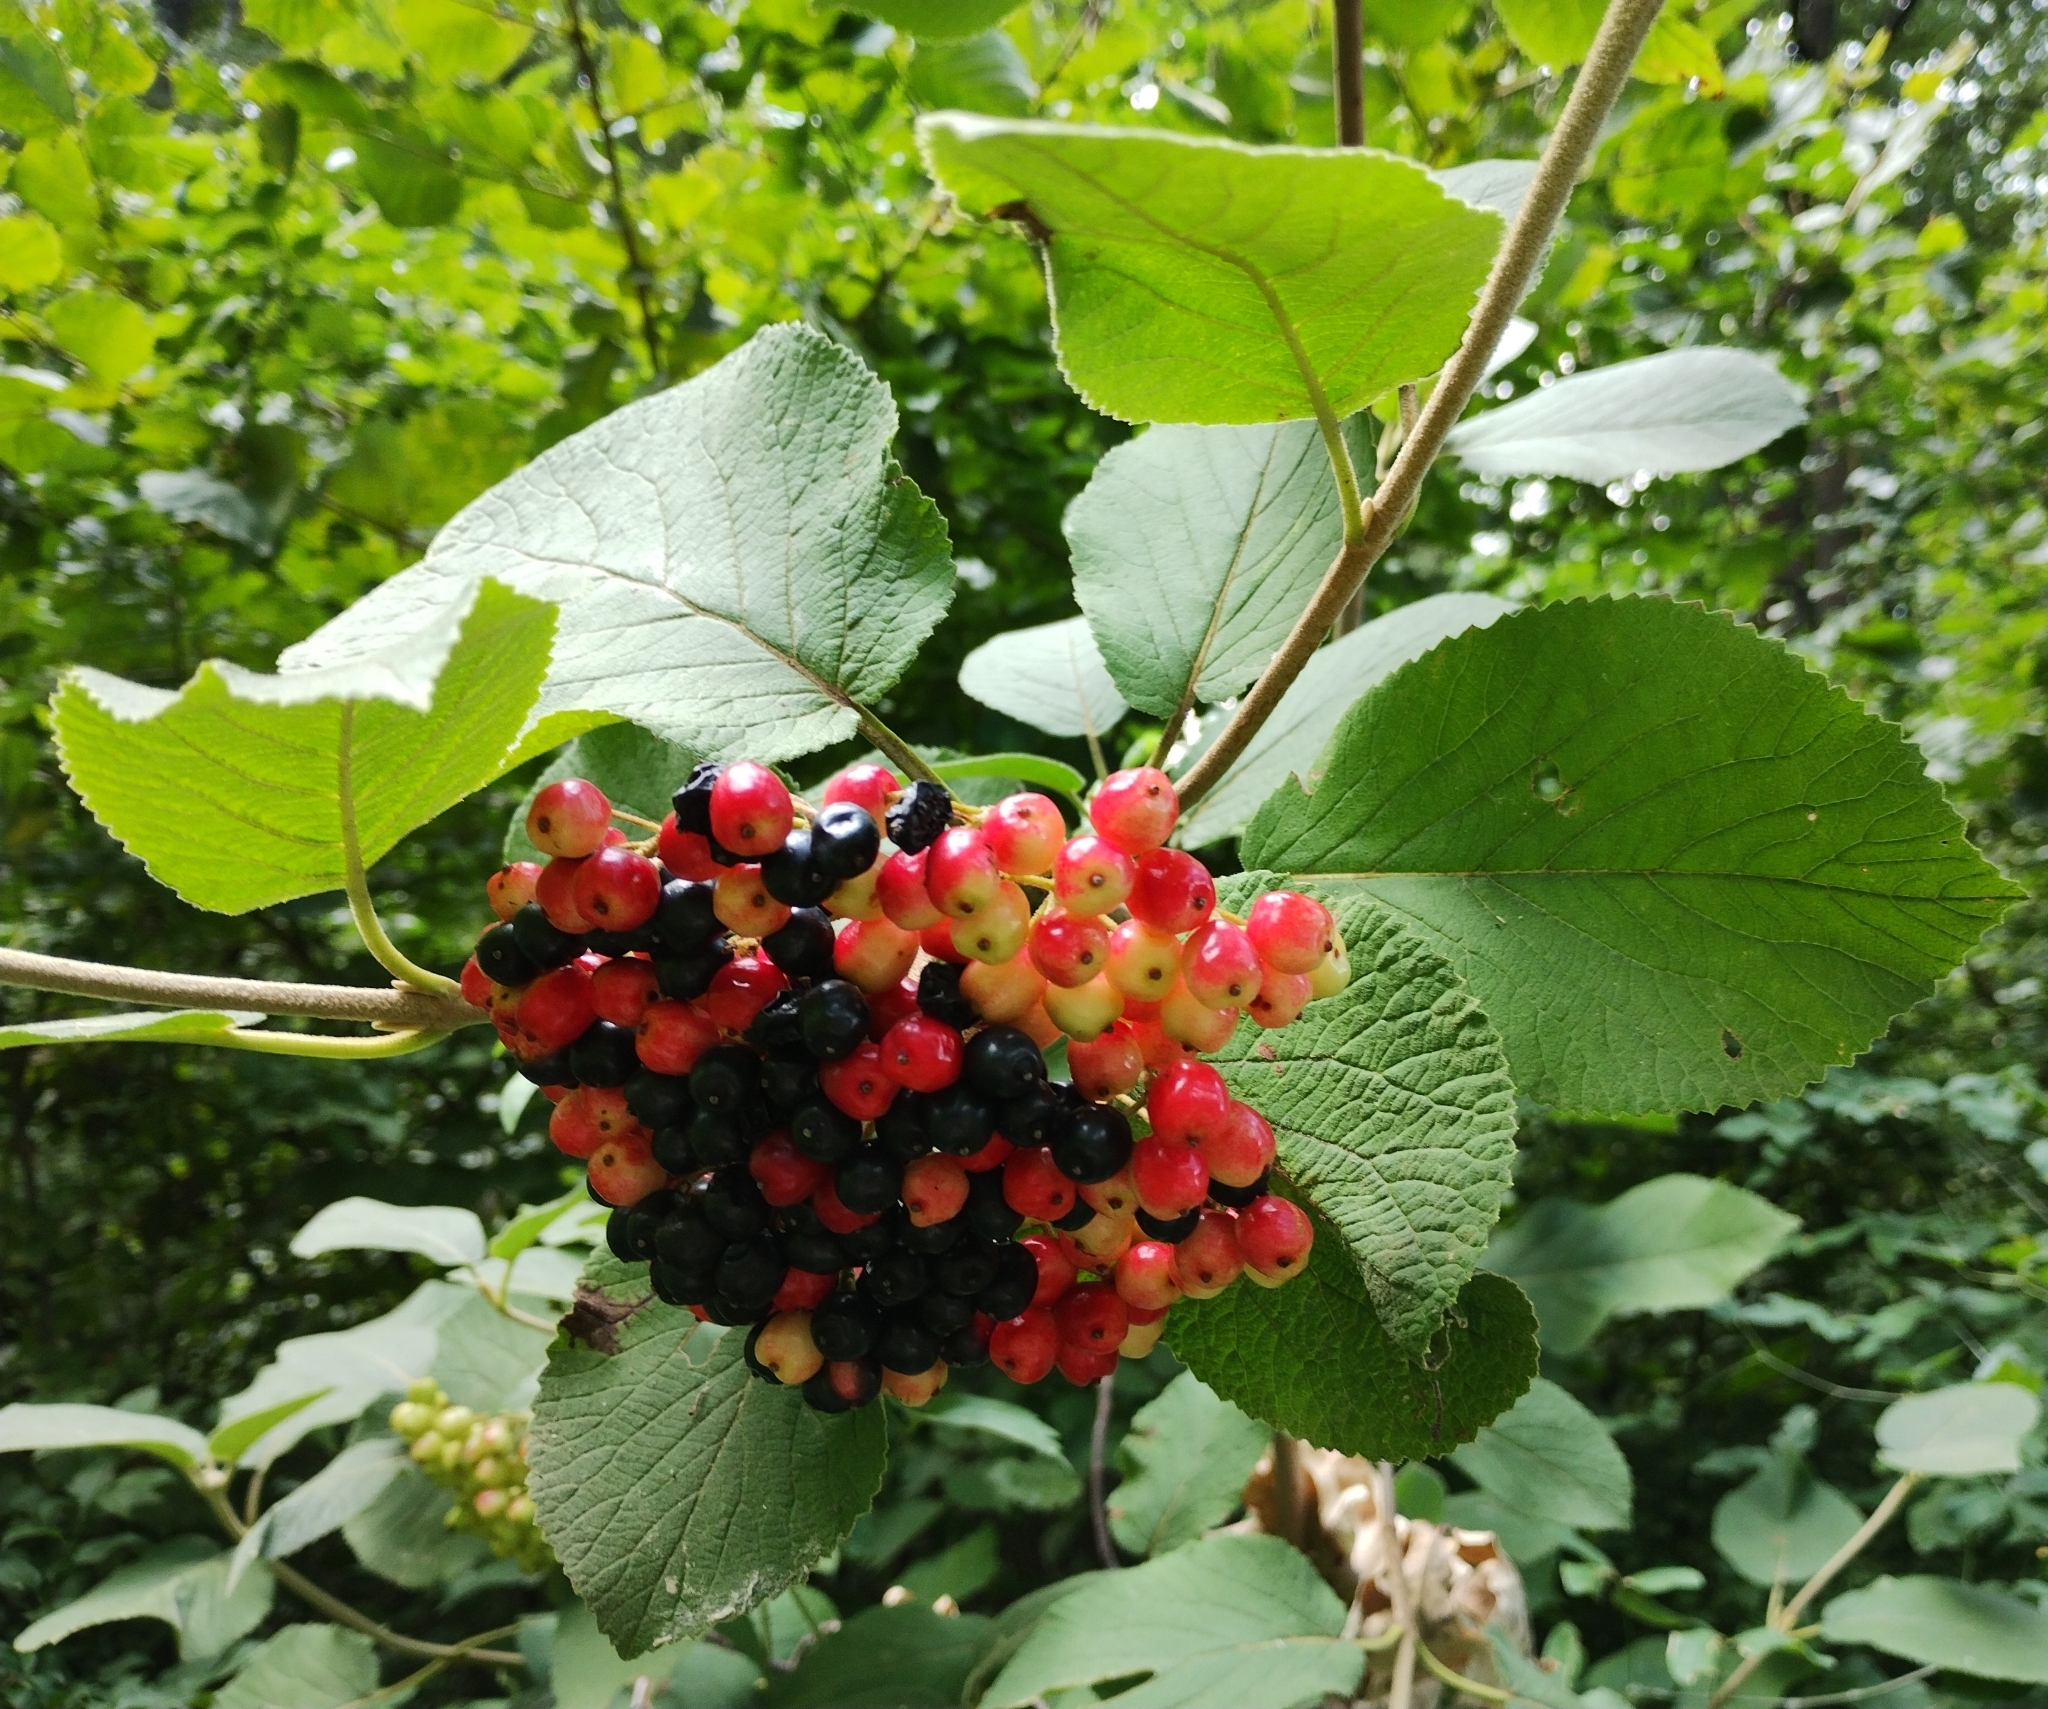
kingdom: Plantae
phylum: Tracheophyta
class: Magnoliopsida
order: Dipsacales
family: Viburnaceae
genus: Viburnum
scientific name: Viburnum lantana
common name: Wayfaring tree
